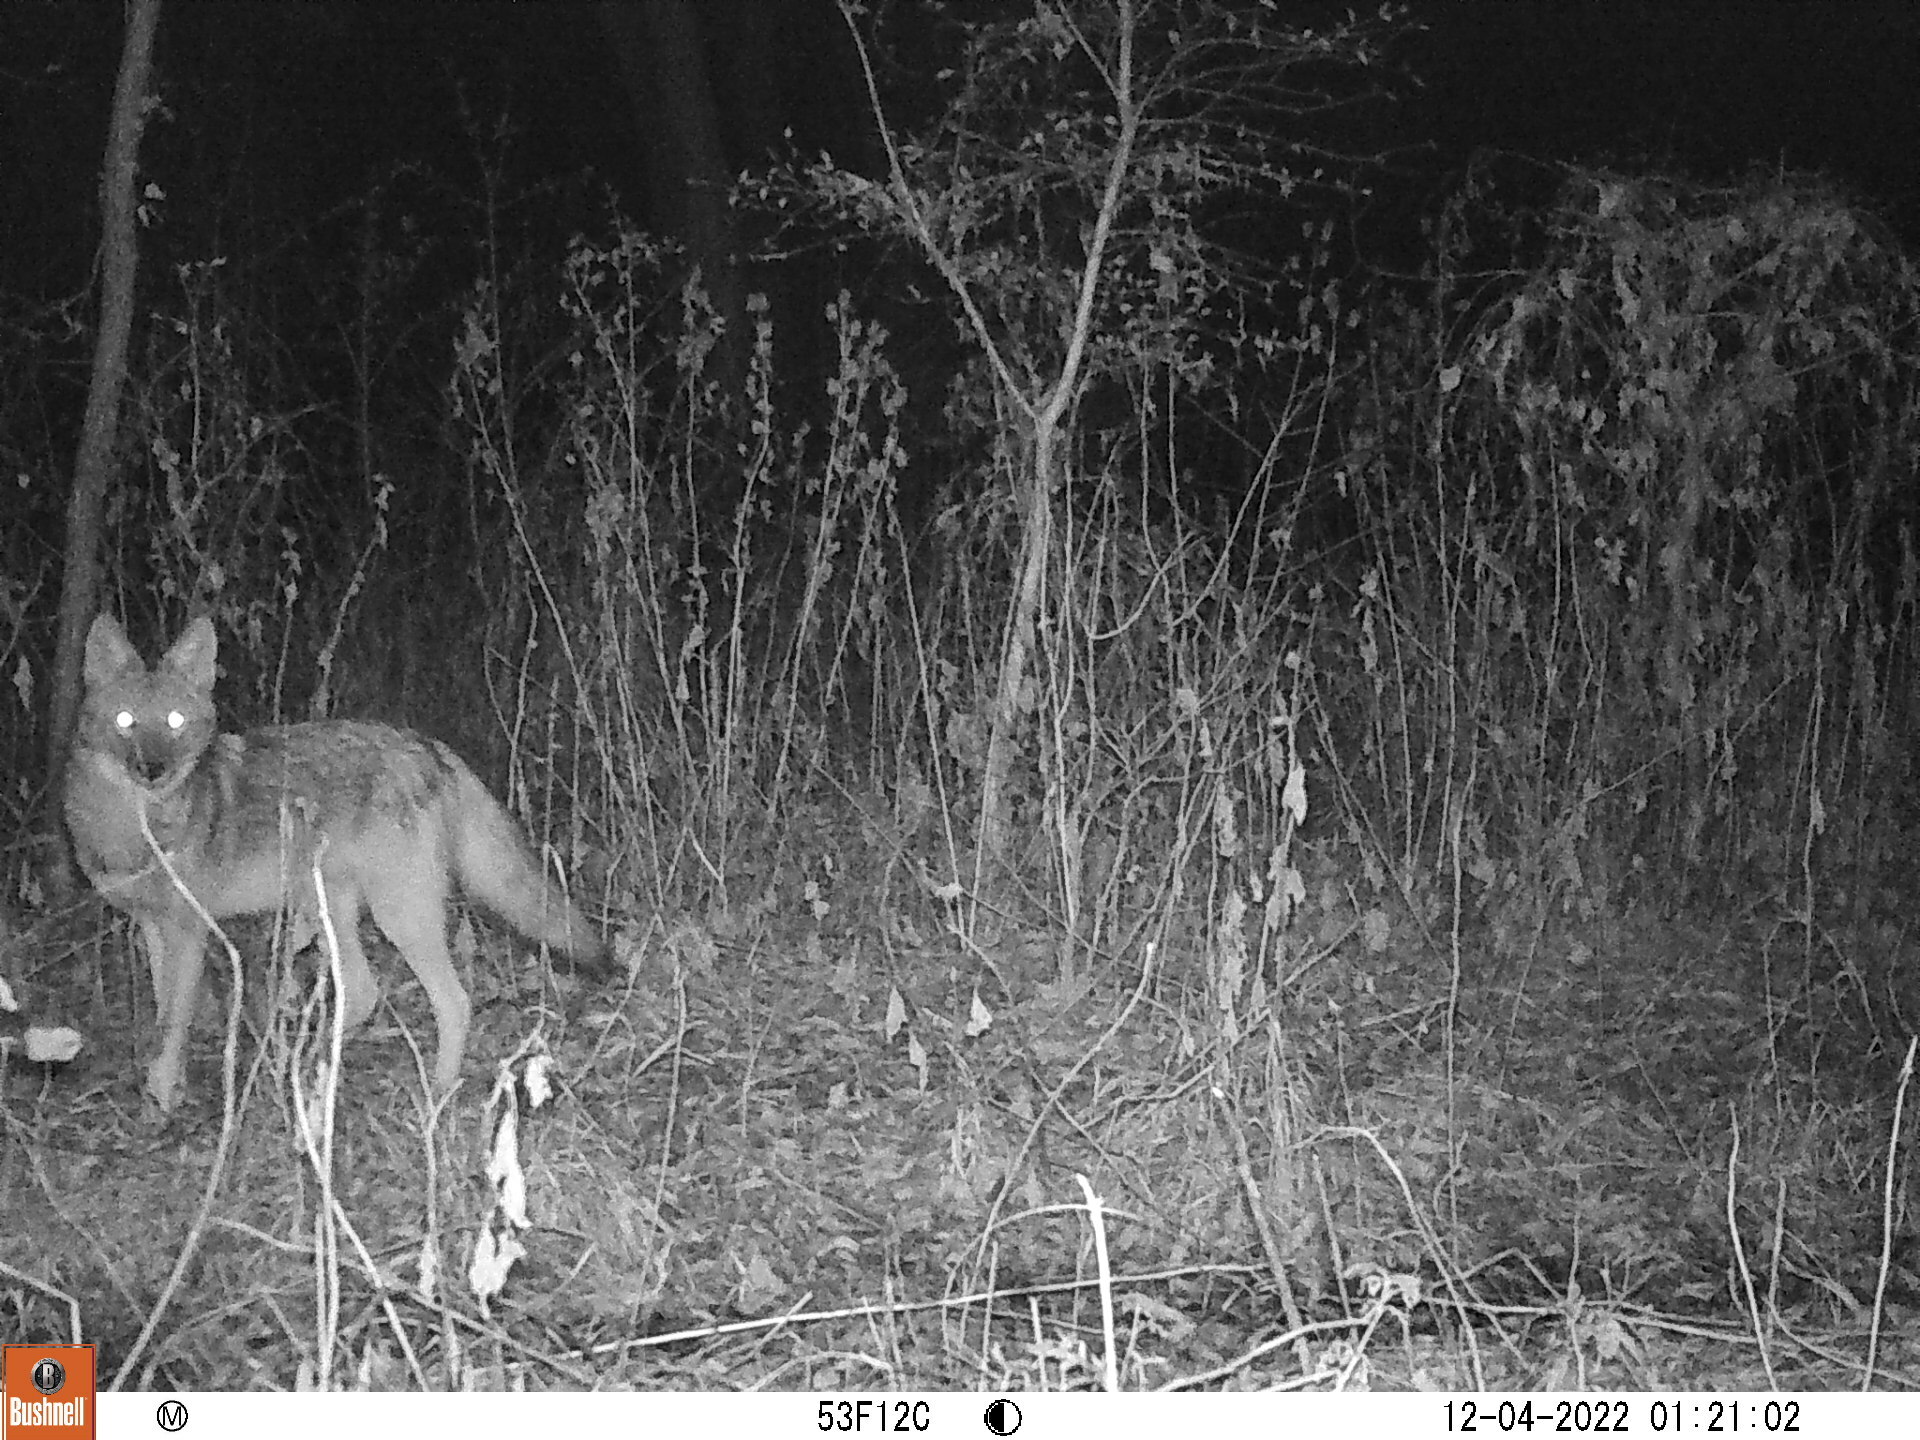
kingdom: Animalia
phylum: Chordata
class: Mammalia
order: Carnivora
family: Canidae
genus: Canis
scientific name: Canis latrans
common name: Coyote
